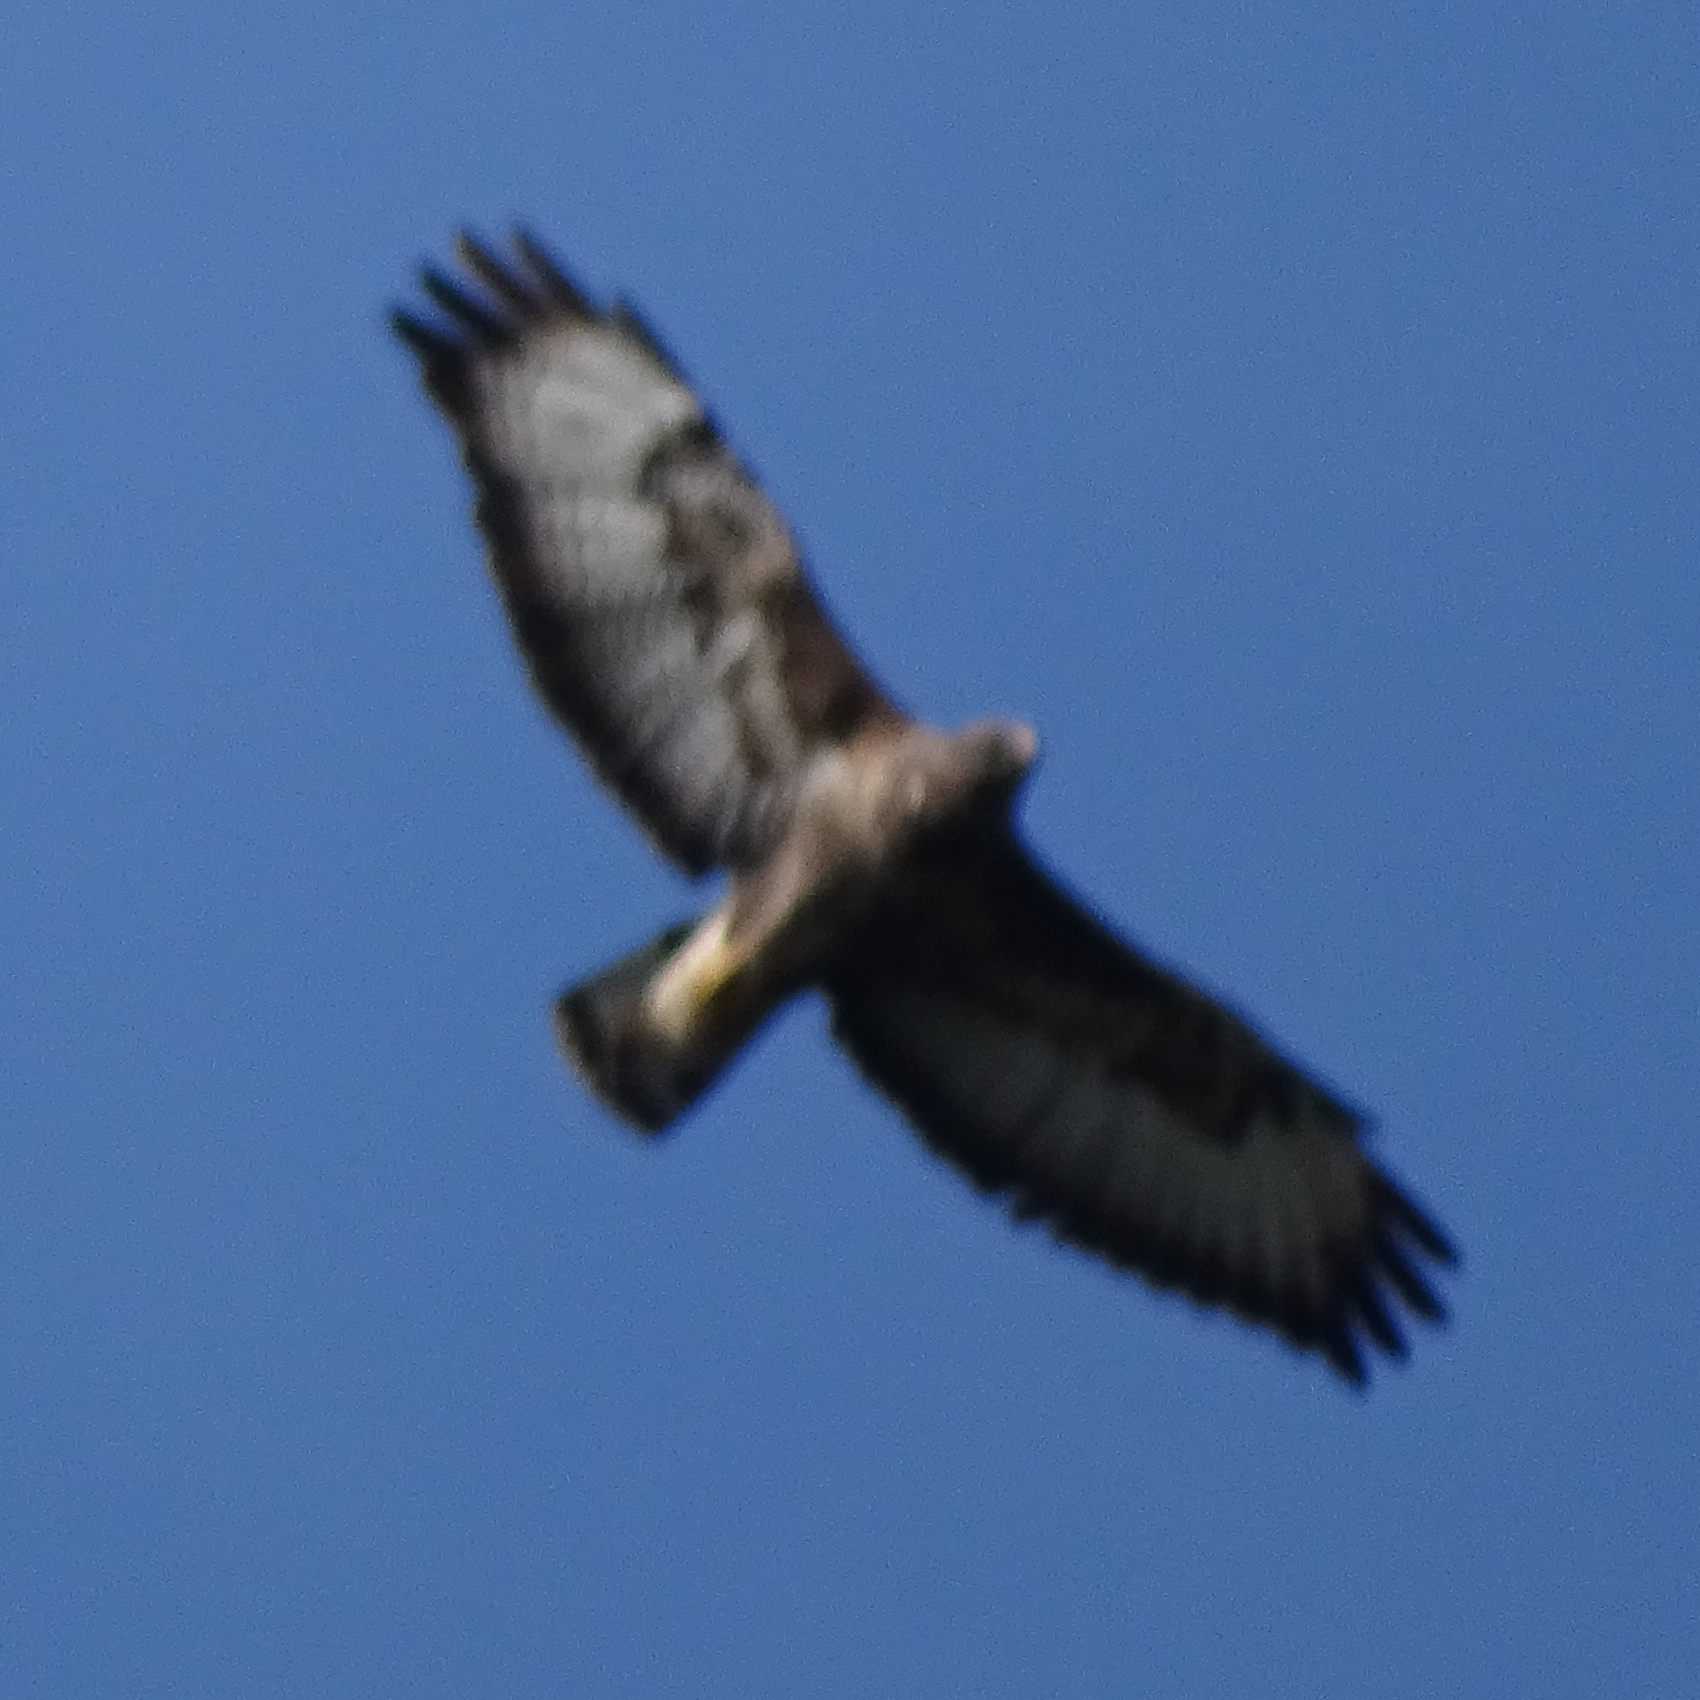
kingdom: Animalia
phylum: Chordata
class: Aves
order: Accipitriformes
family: Accipitridae
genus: Buteo
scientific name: Buteo buteo
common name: Common buzzard
